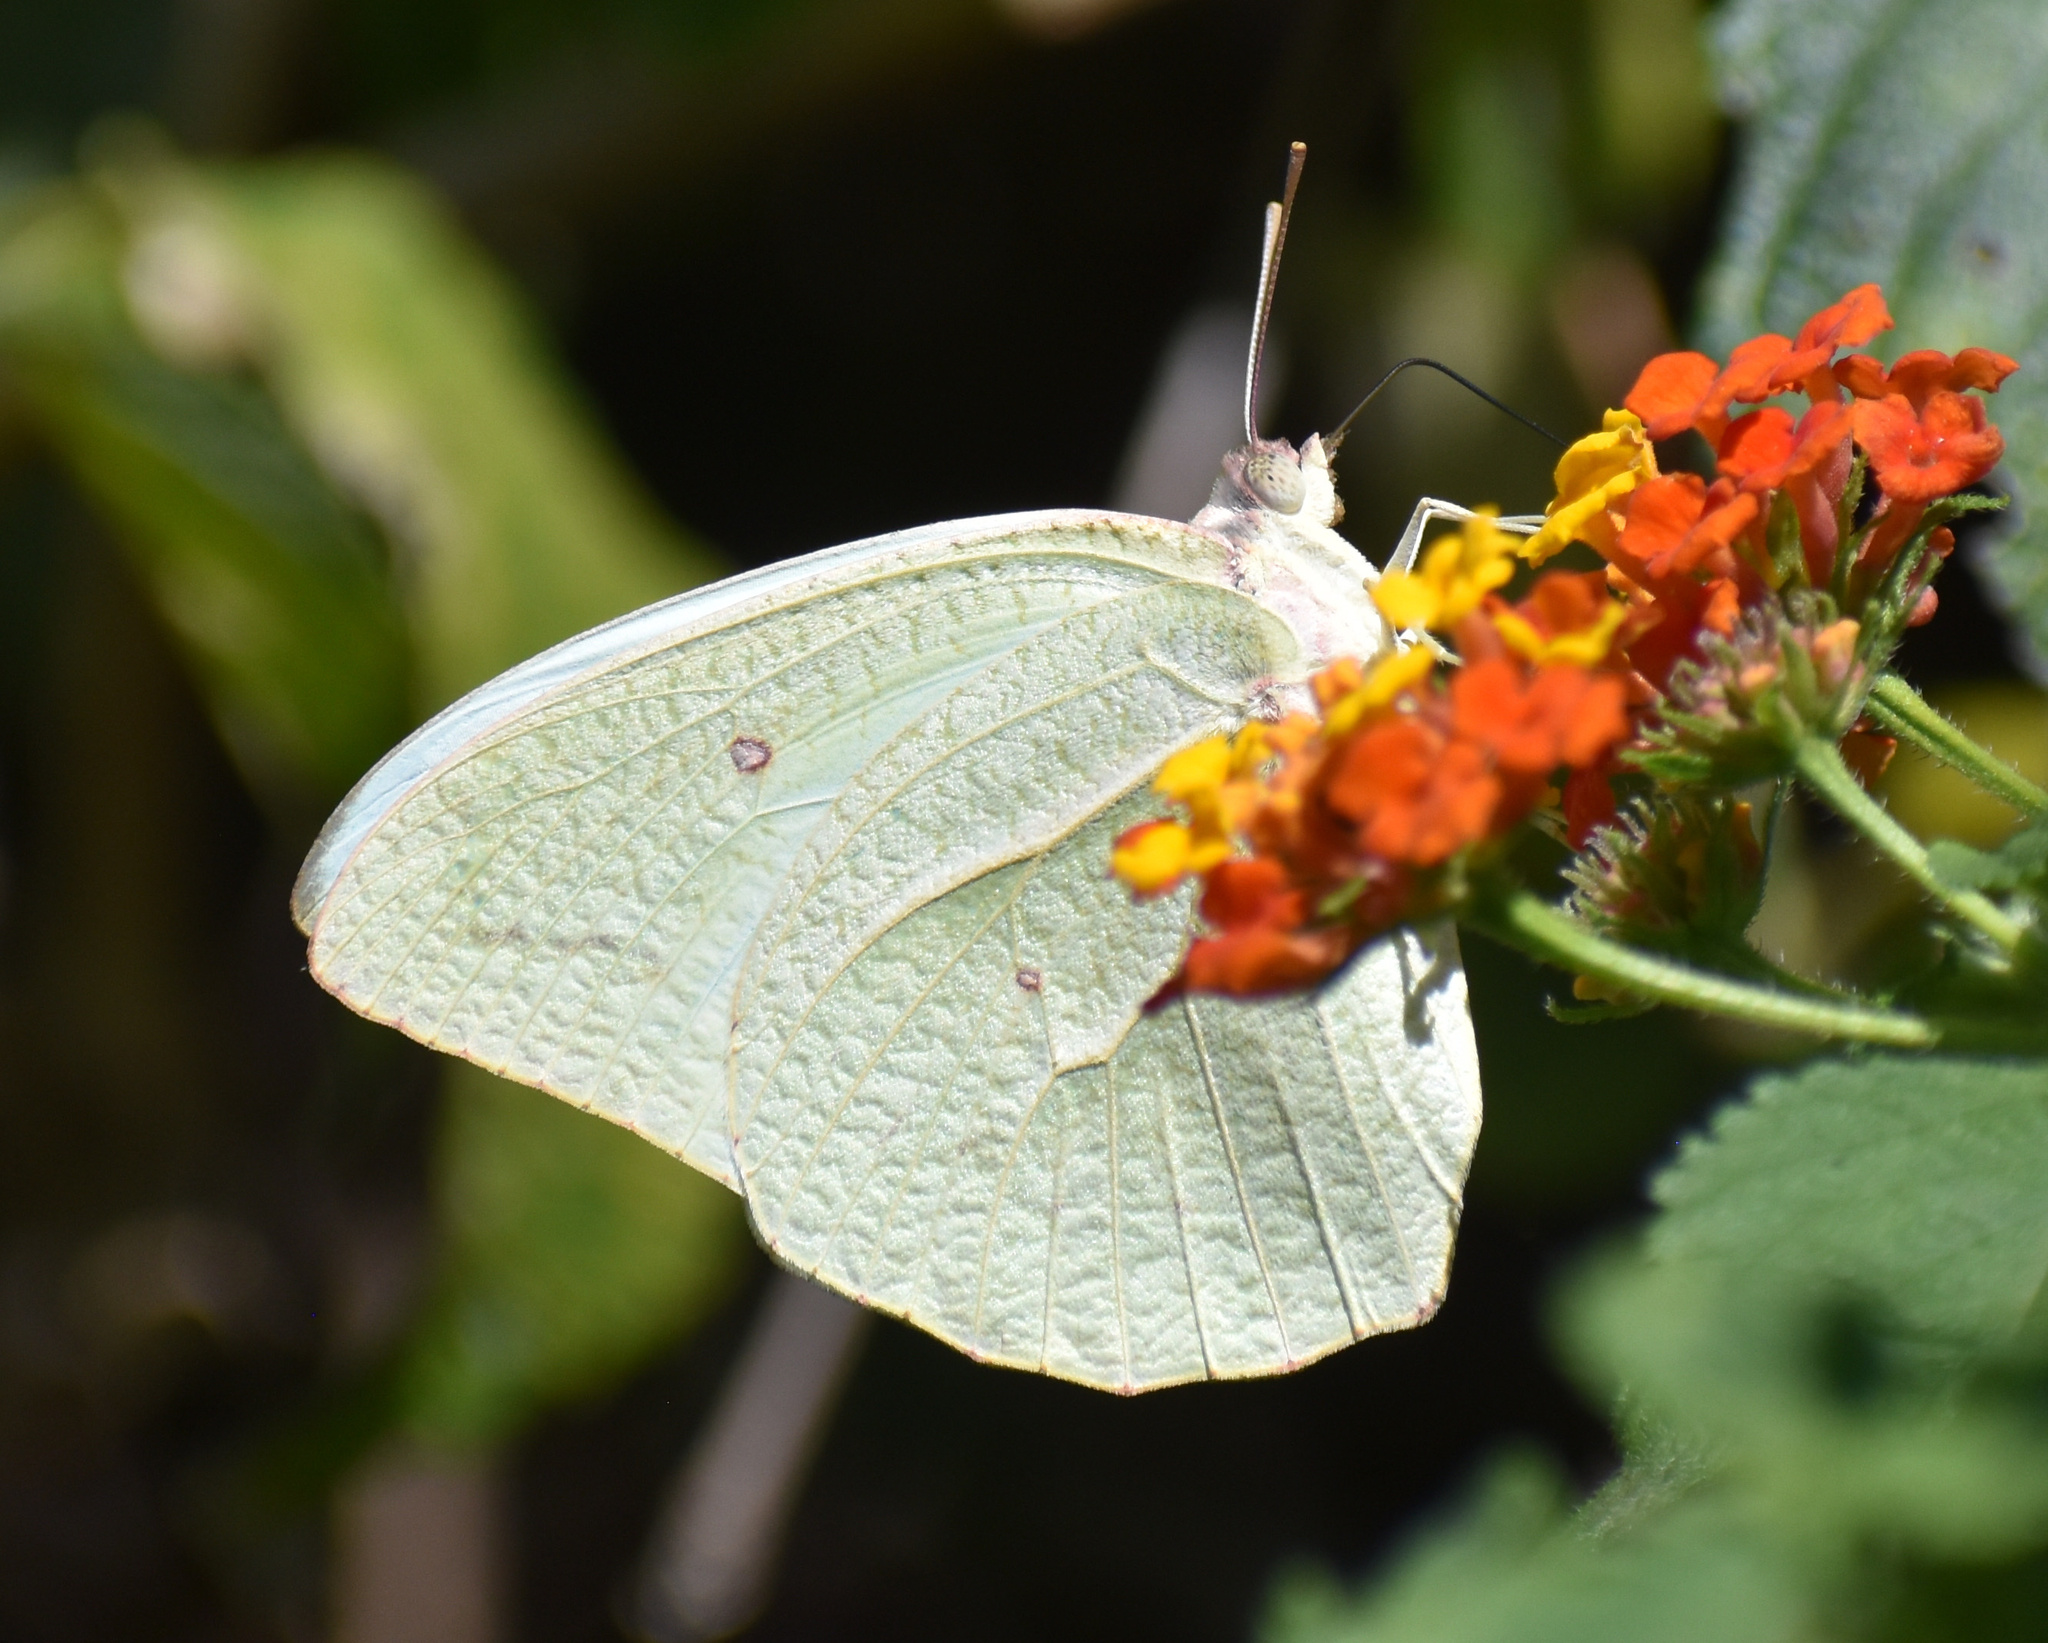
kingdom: Animalia
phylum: Arthropoda
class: Insecta
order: Lepidoptera
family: Pieridae
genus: Catopsilia
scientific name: Catopsilia florella
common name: African migrant
